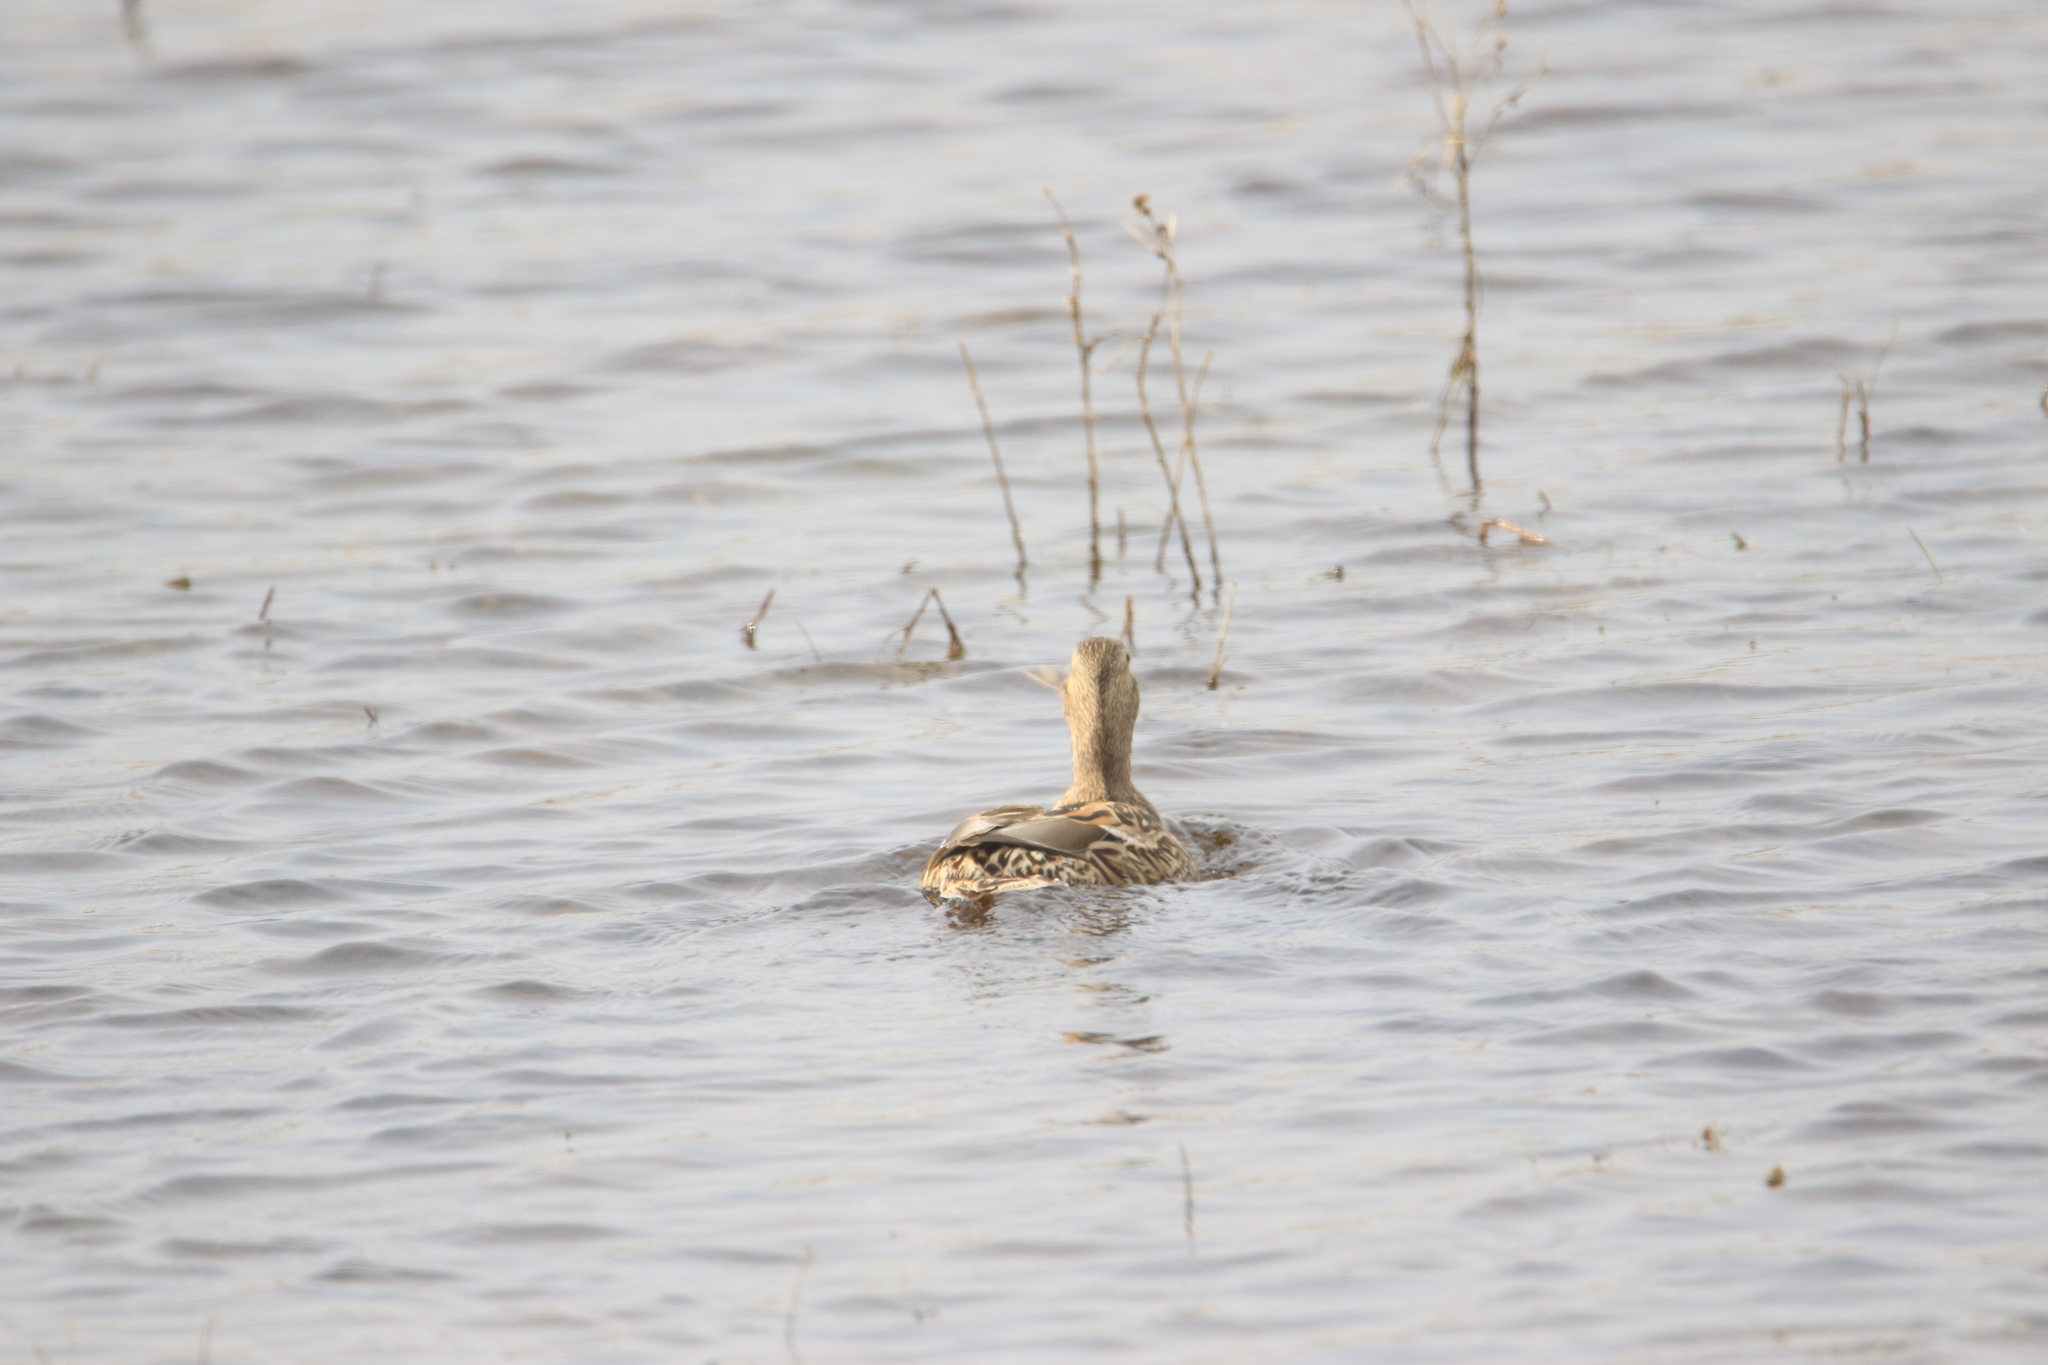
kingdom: Animalia
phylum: Chordata
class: Aves
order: Anseriformes
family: Anatidae
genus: Anas
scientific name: Anas platyrhynchos
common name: Mallard
